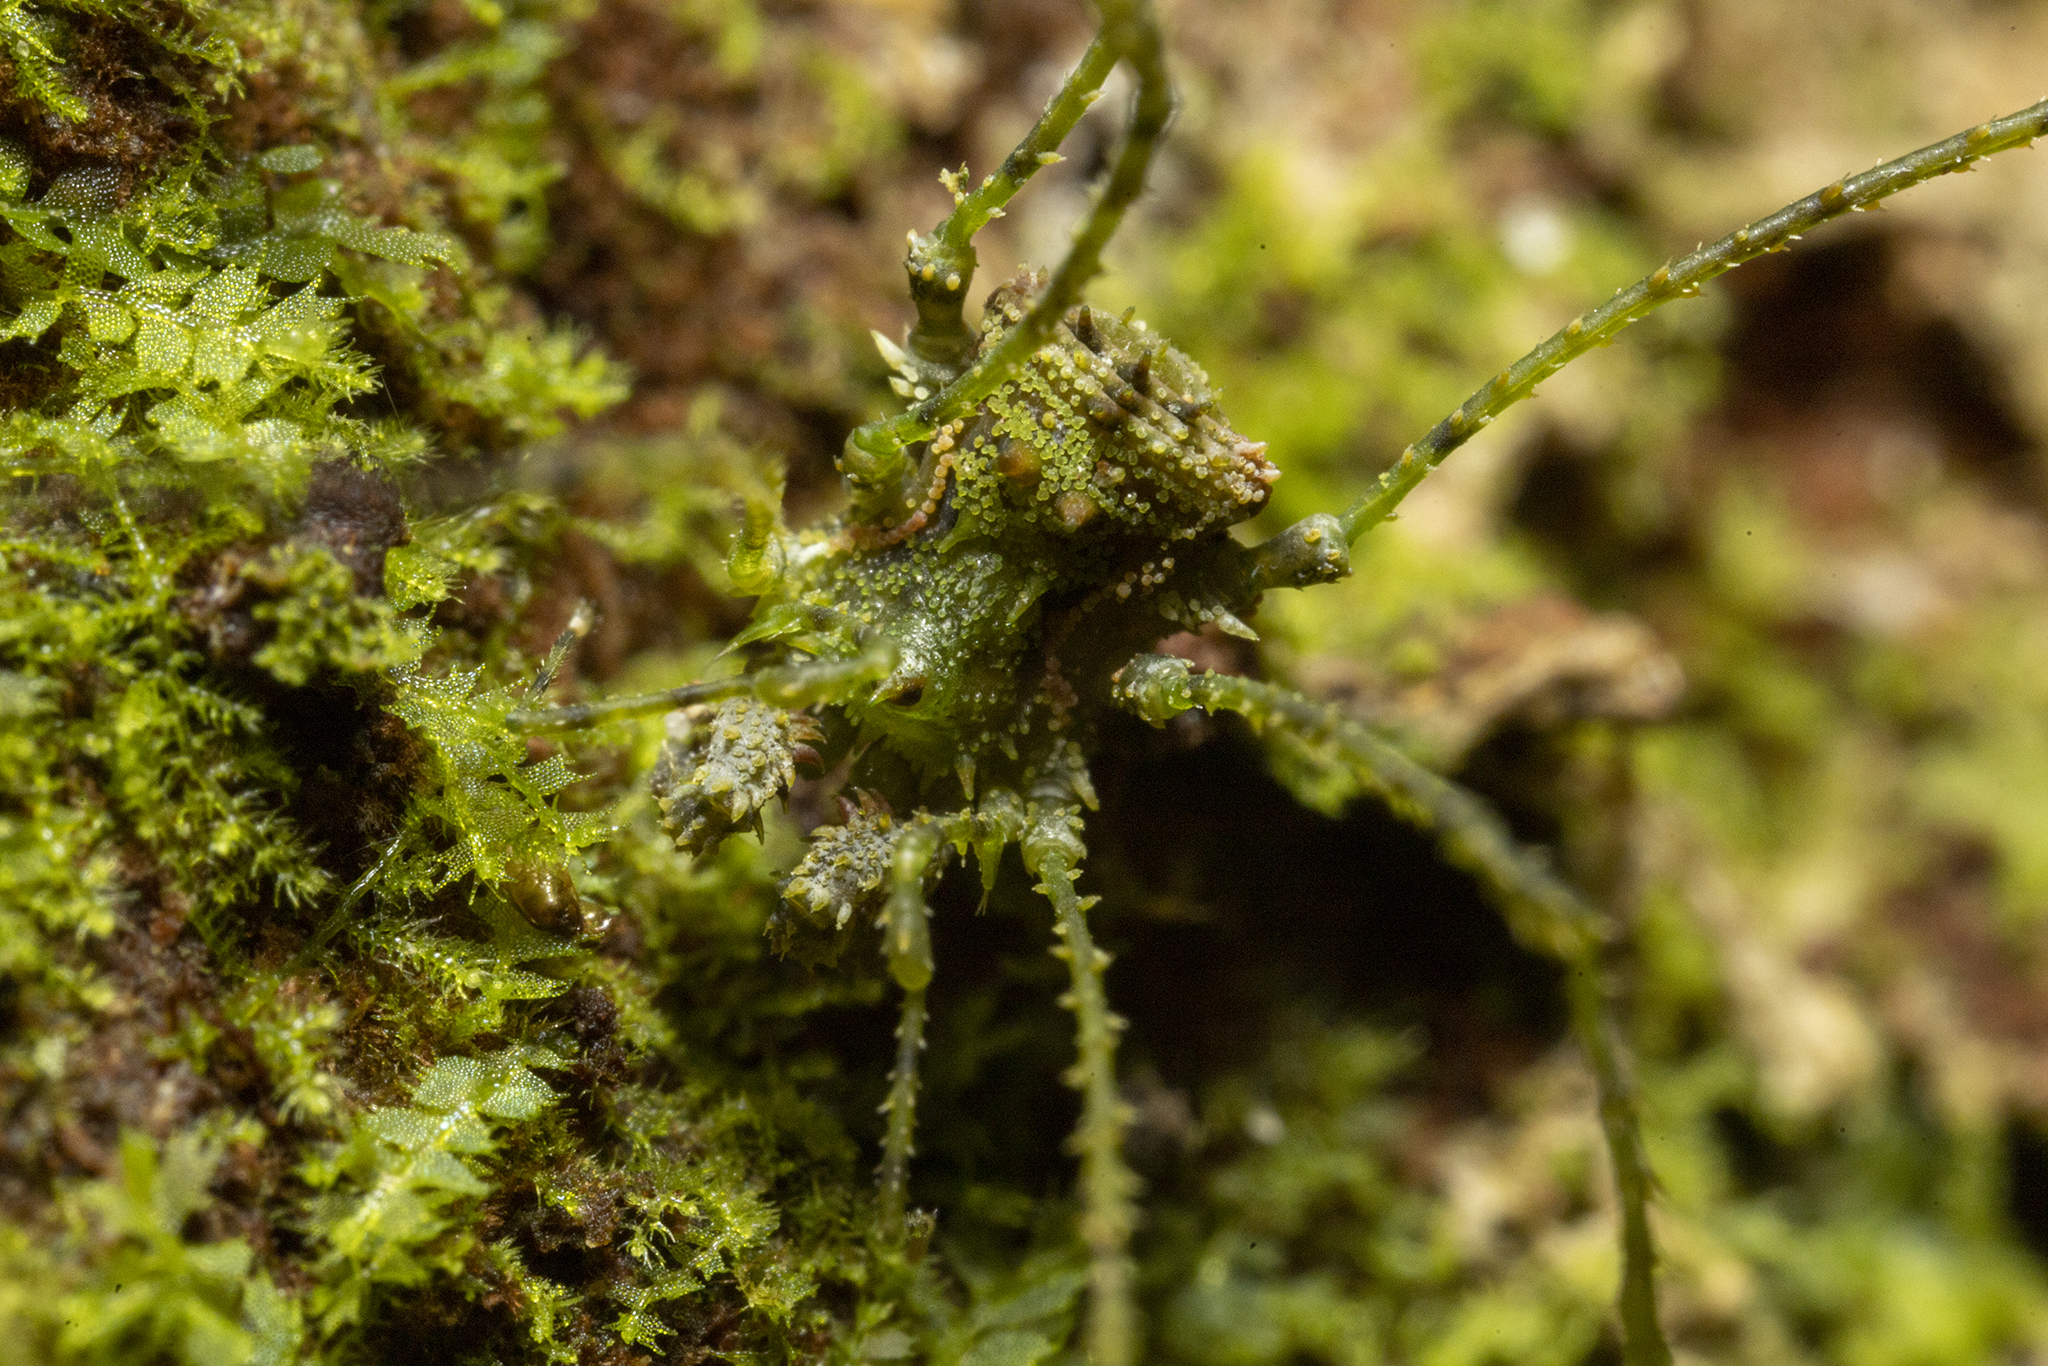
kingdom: Animalia
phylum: Arthropoda
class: Arachnida
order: Opiliones
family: Triaenonychidae
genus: Algidia
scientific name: Algidia viridata
